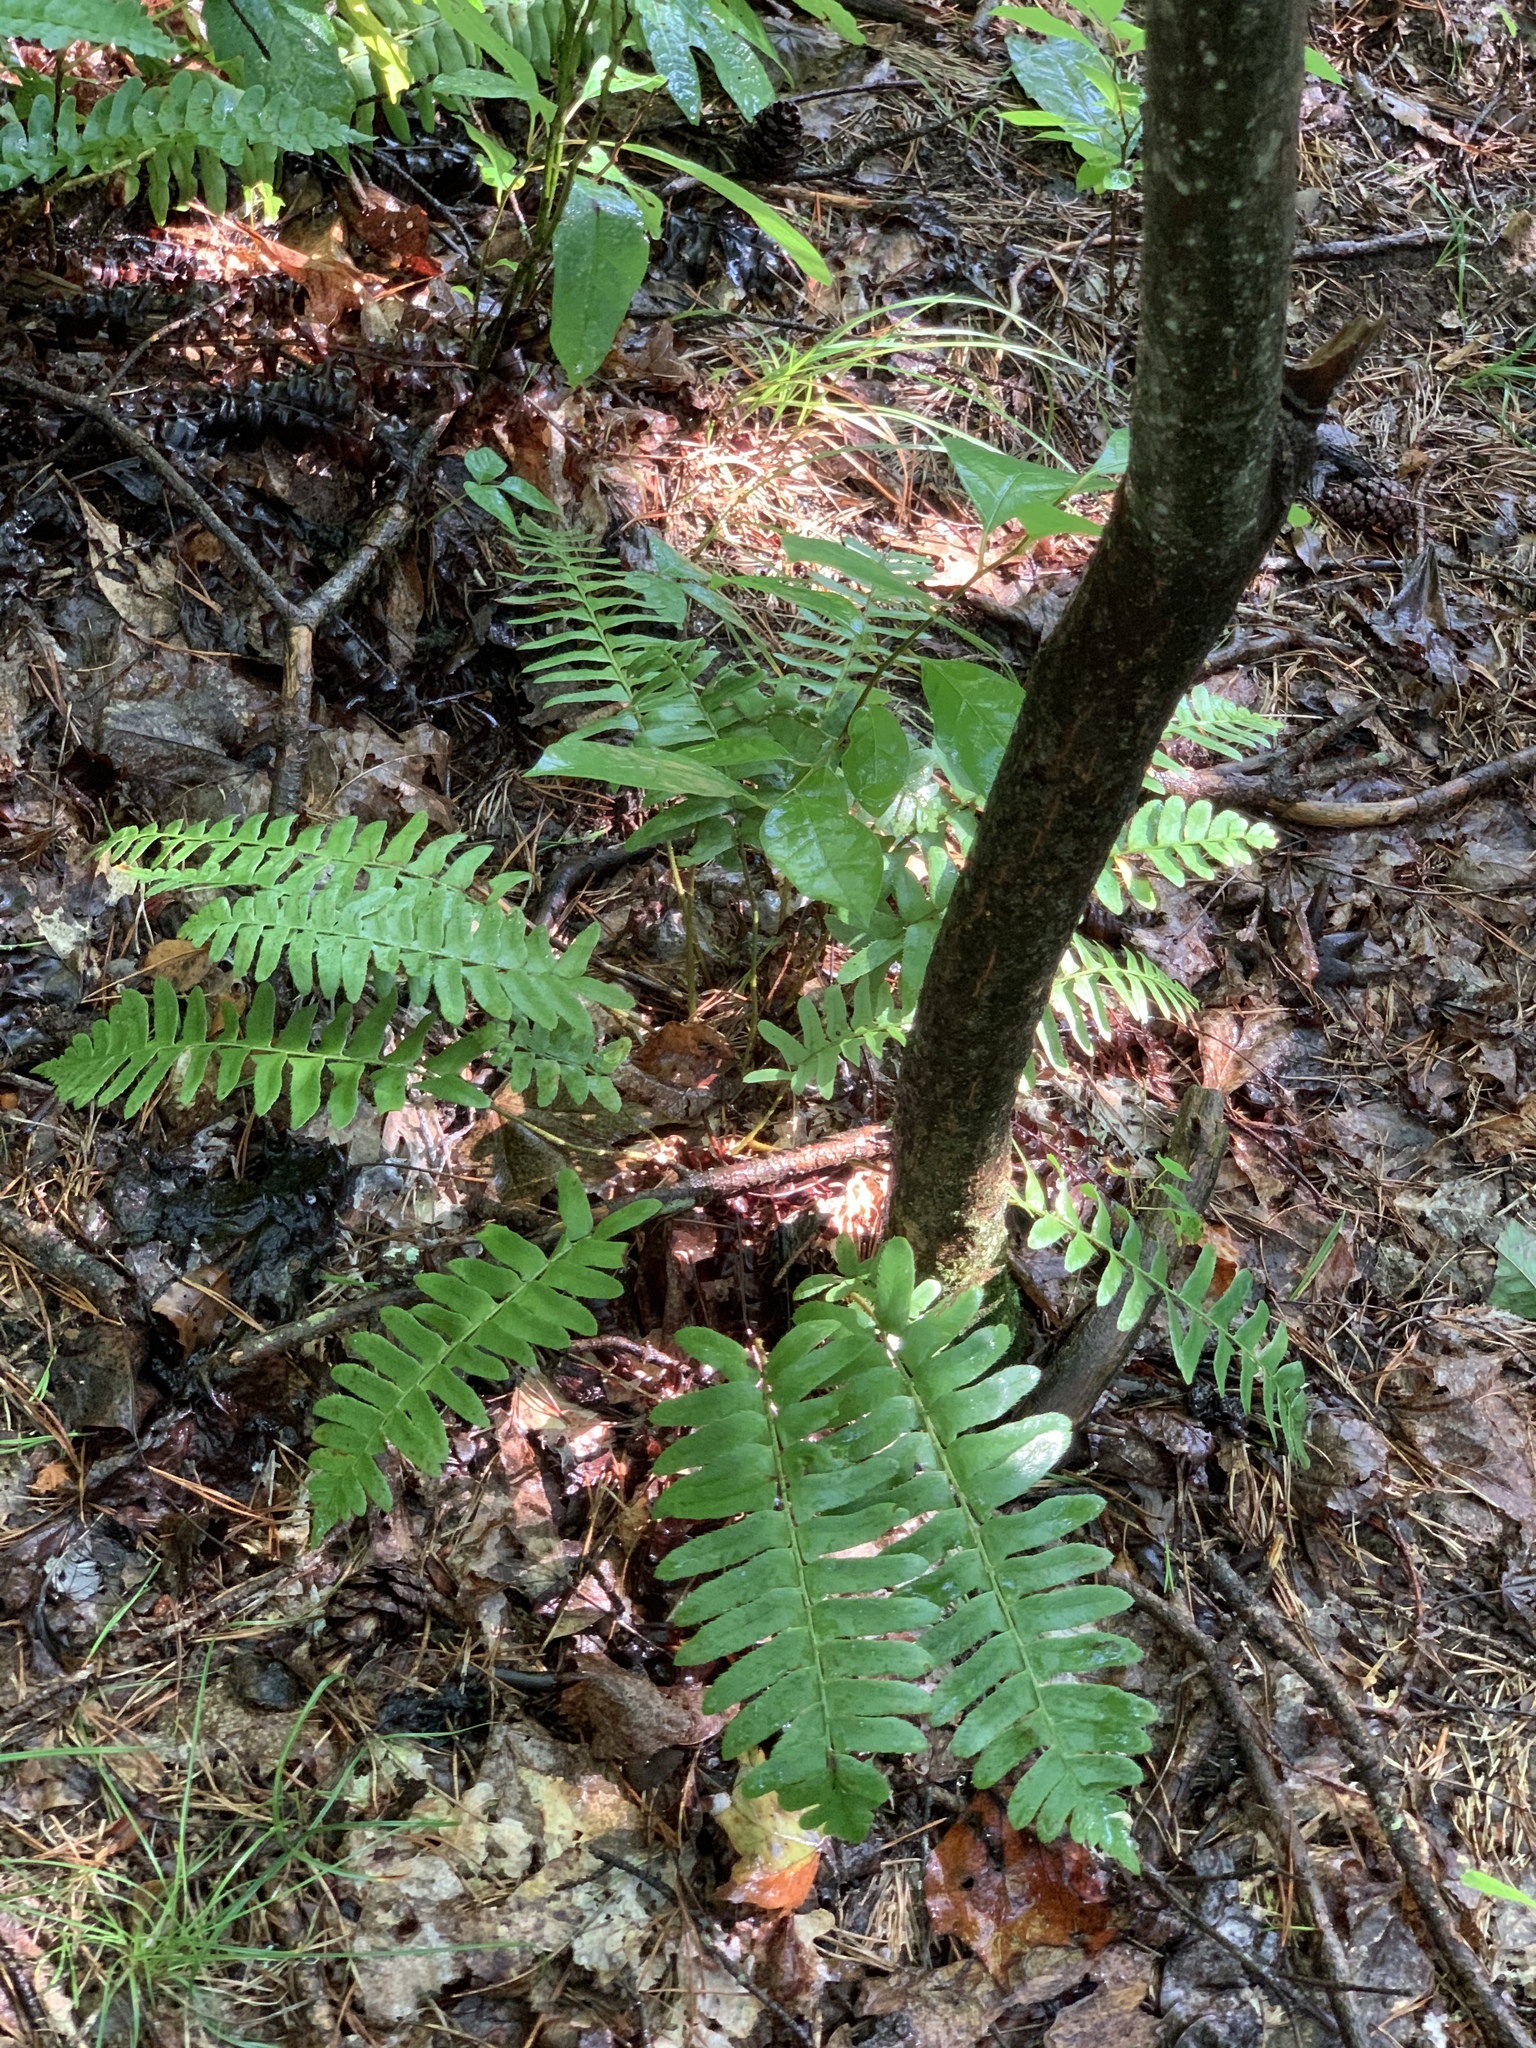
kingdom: Plantae
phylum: Tracheophyta
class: Polypodiopsida
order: Polypodiales
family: Dryopteridaceae
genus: Polystichum
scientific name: Polystichum acrostichoides
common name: Christmas fern
